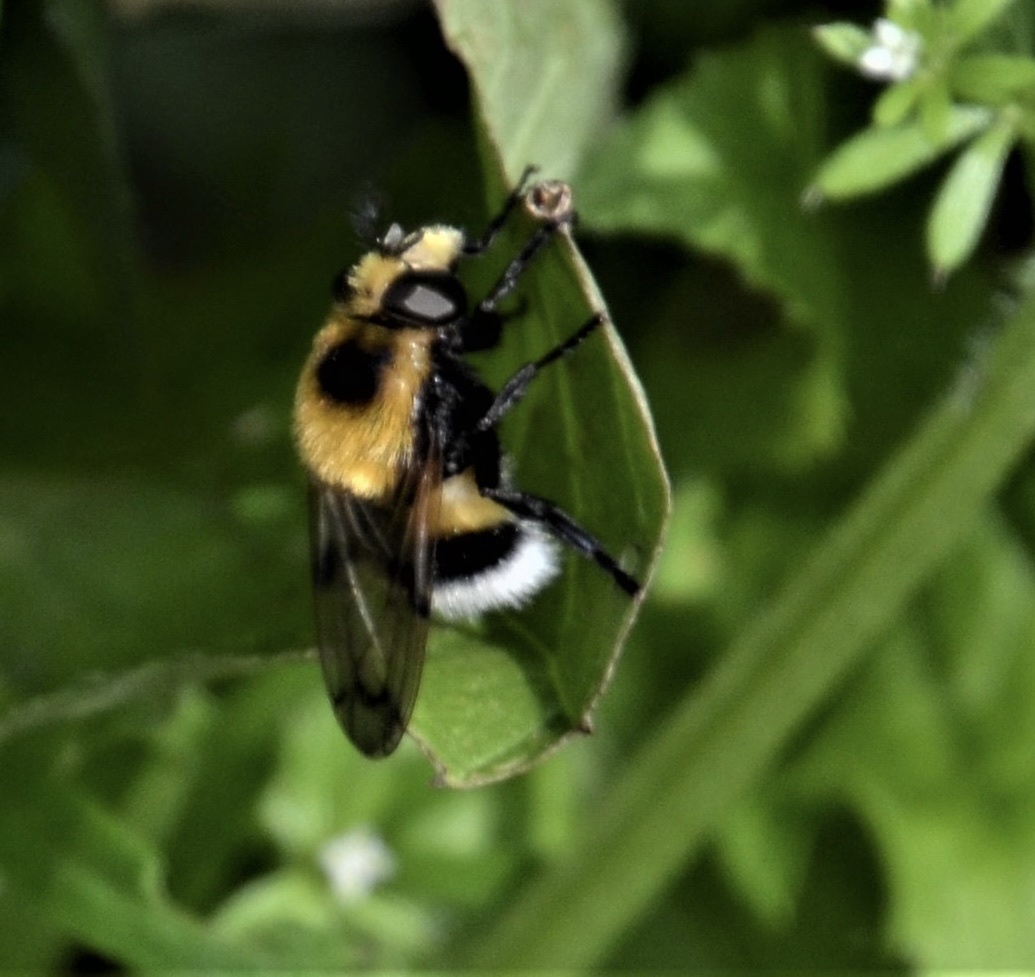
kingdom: Animalia
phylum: Arthropoda
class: Insecta
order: Diptera
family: Syrphidae
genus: Volucella
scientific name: Volucella bombylans
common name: Bumble bee hover fly
